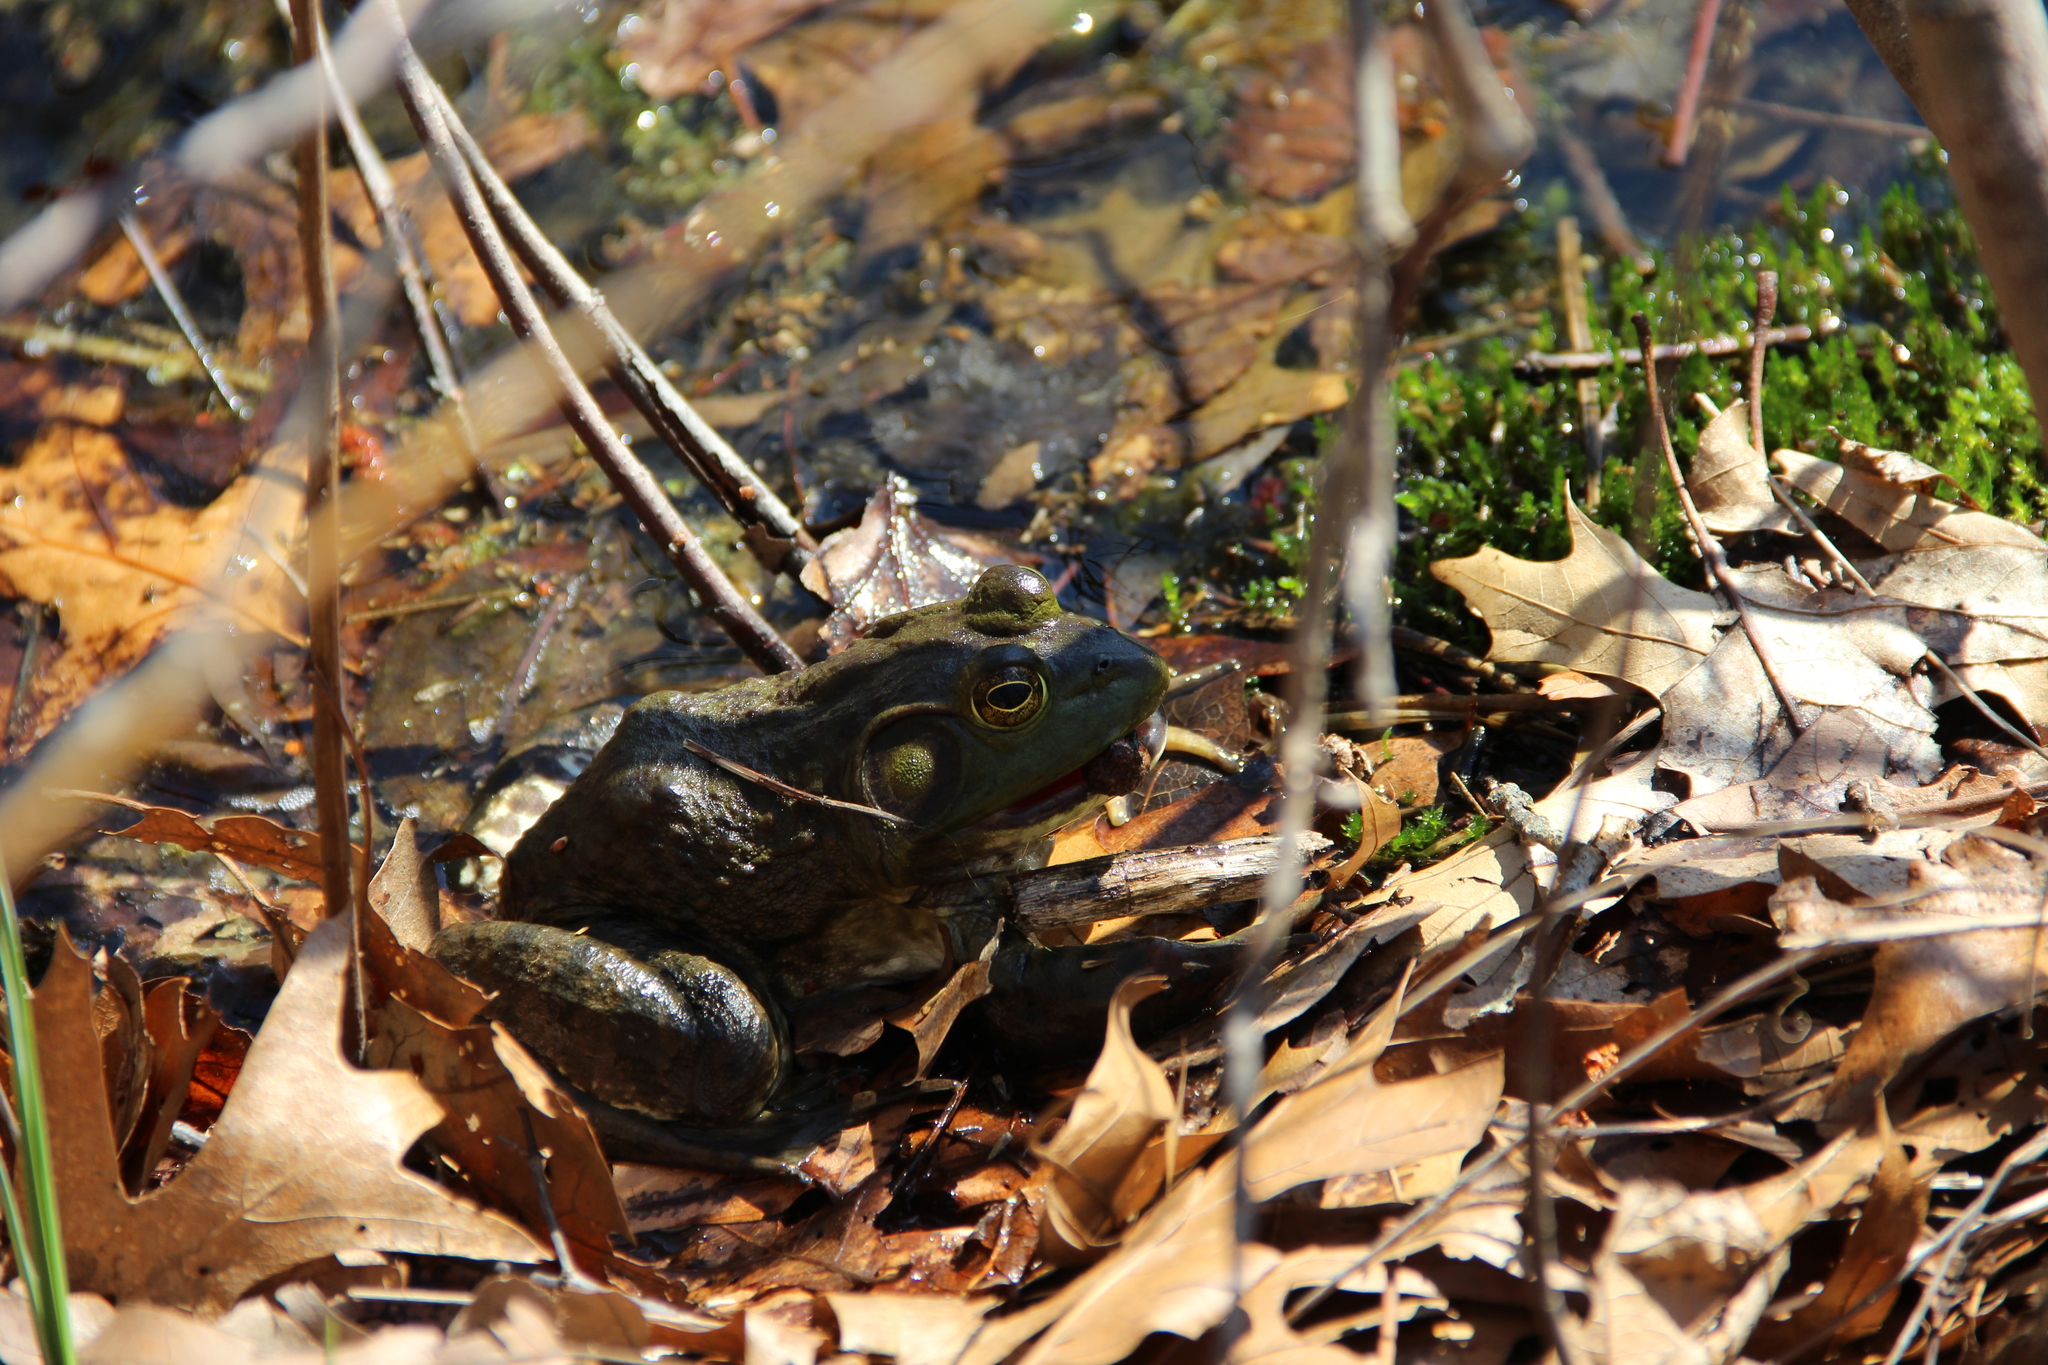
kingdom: Animalia
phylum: Chordata
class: Amphibia
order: Anura
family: Ranidae
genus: Lithobates
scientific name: Lithobates catesbeianus
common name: American bullfrog
